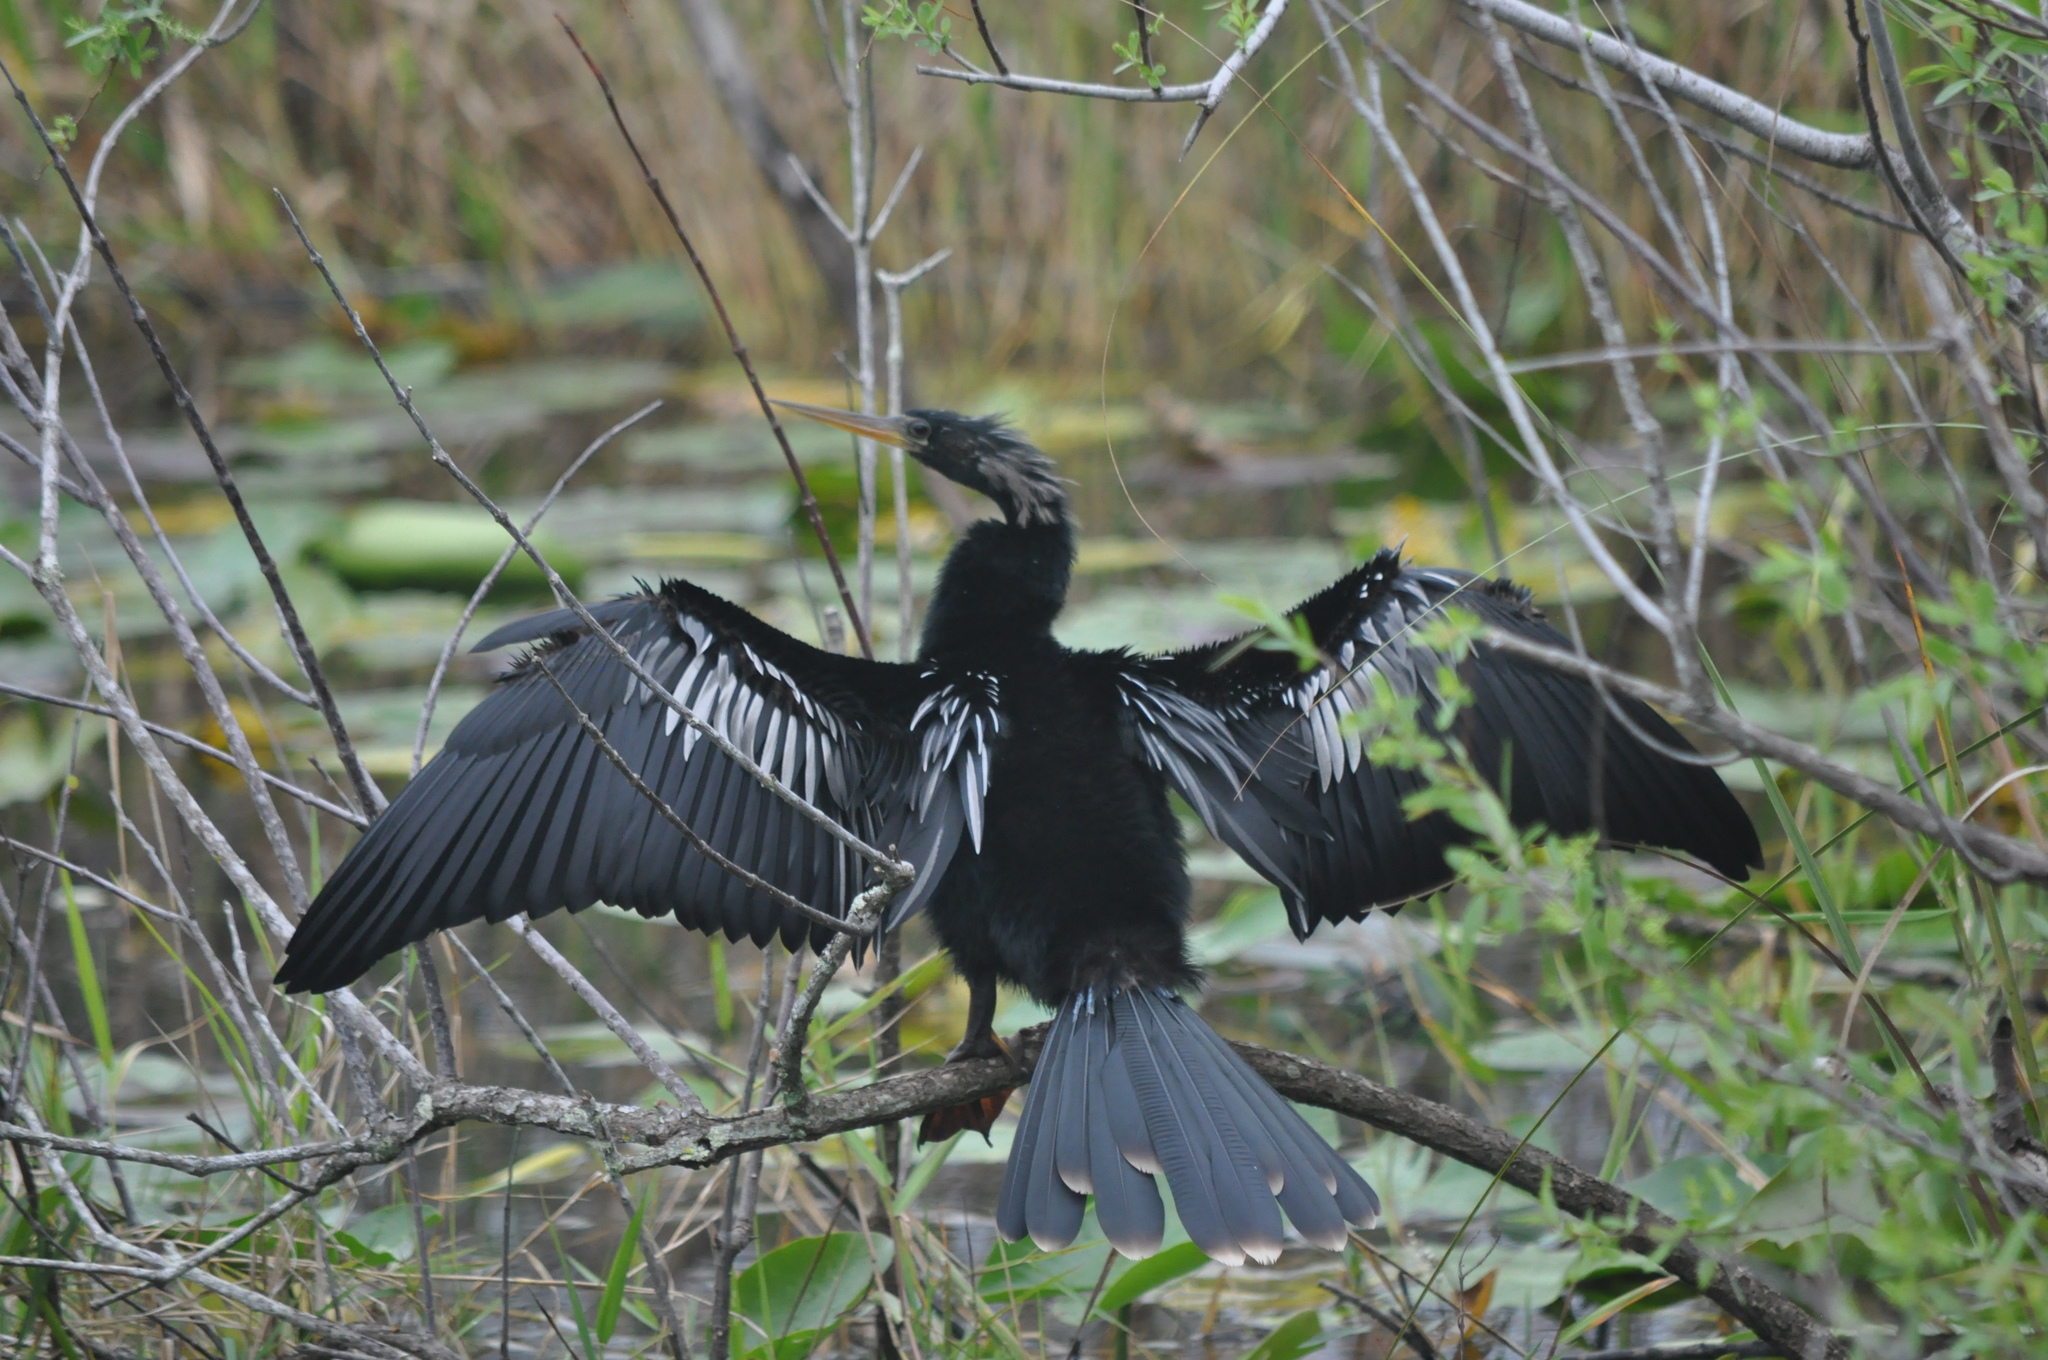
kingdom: Animalia
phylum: Chordata
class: Aves
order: Suliformes
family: Anhingidae
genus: Anhinga
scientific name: Anhinga anhinga
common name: Anhinga
